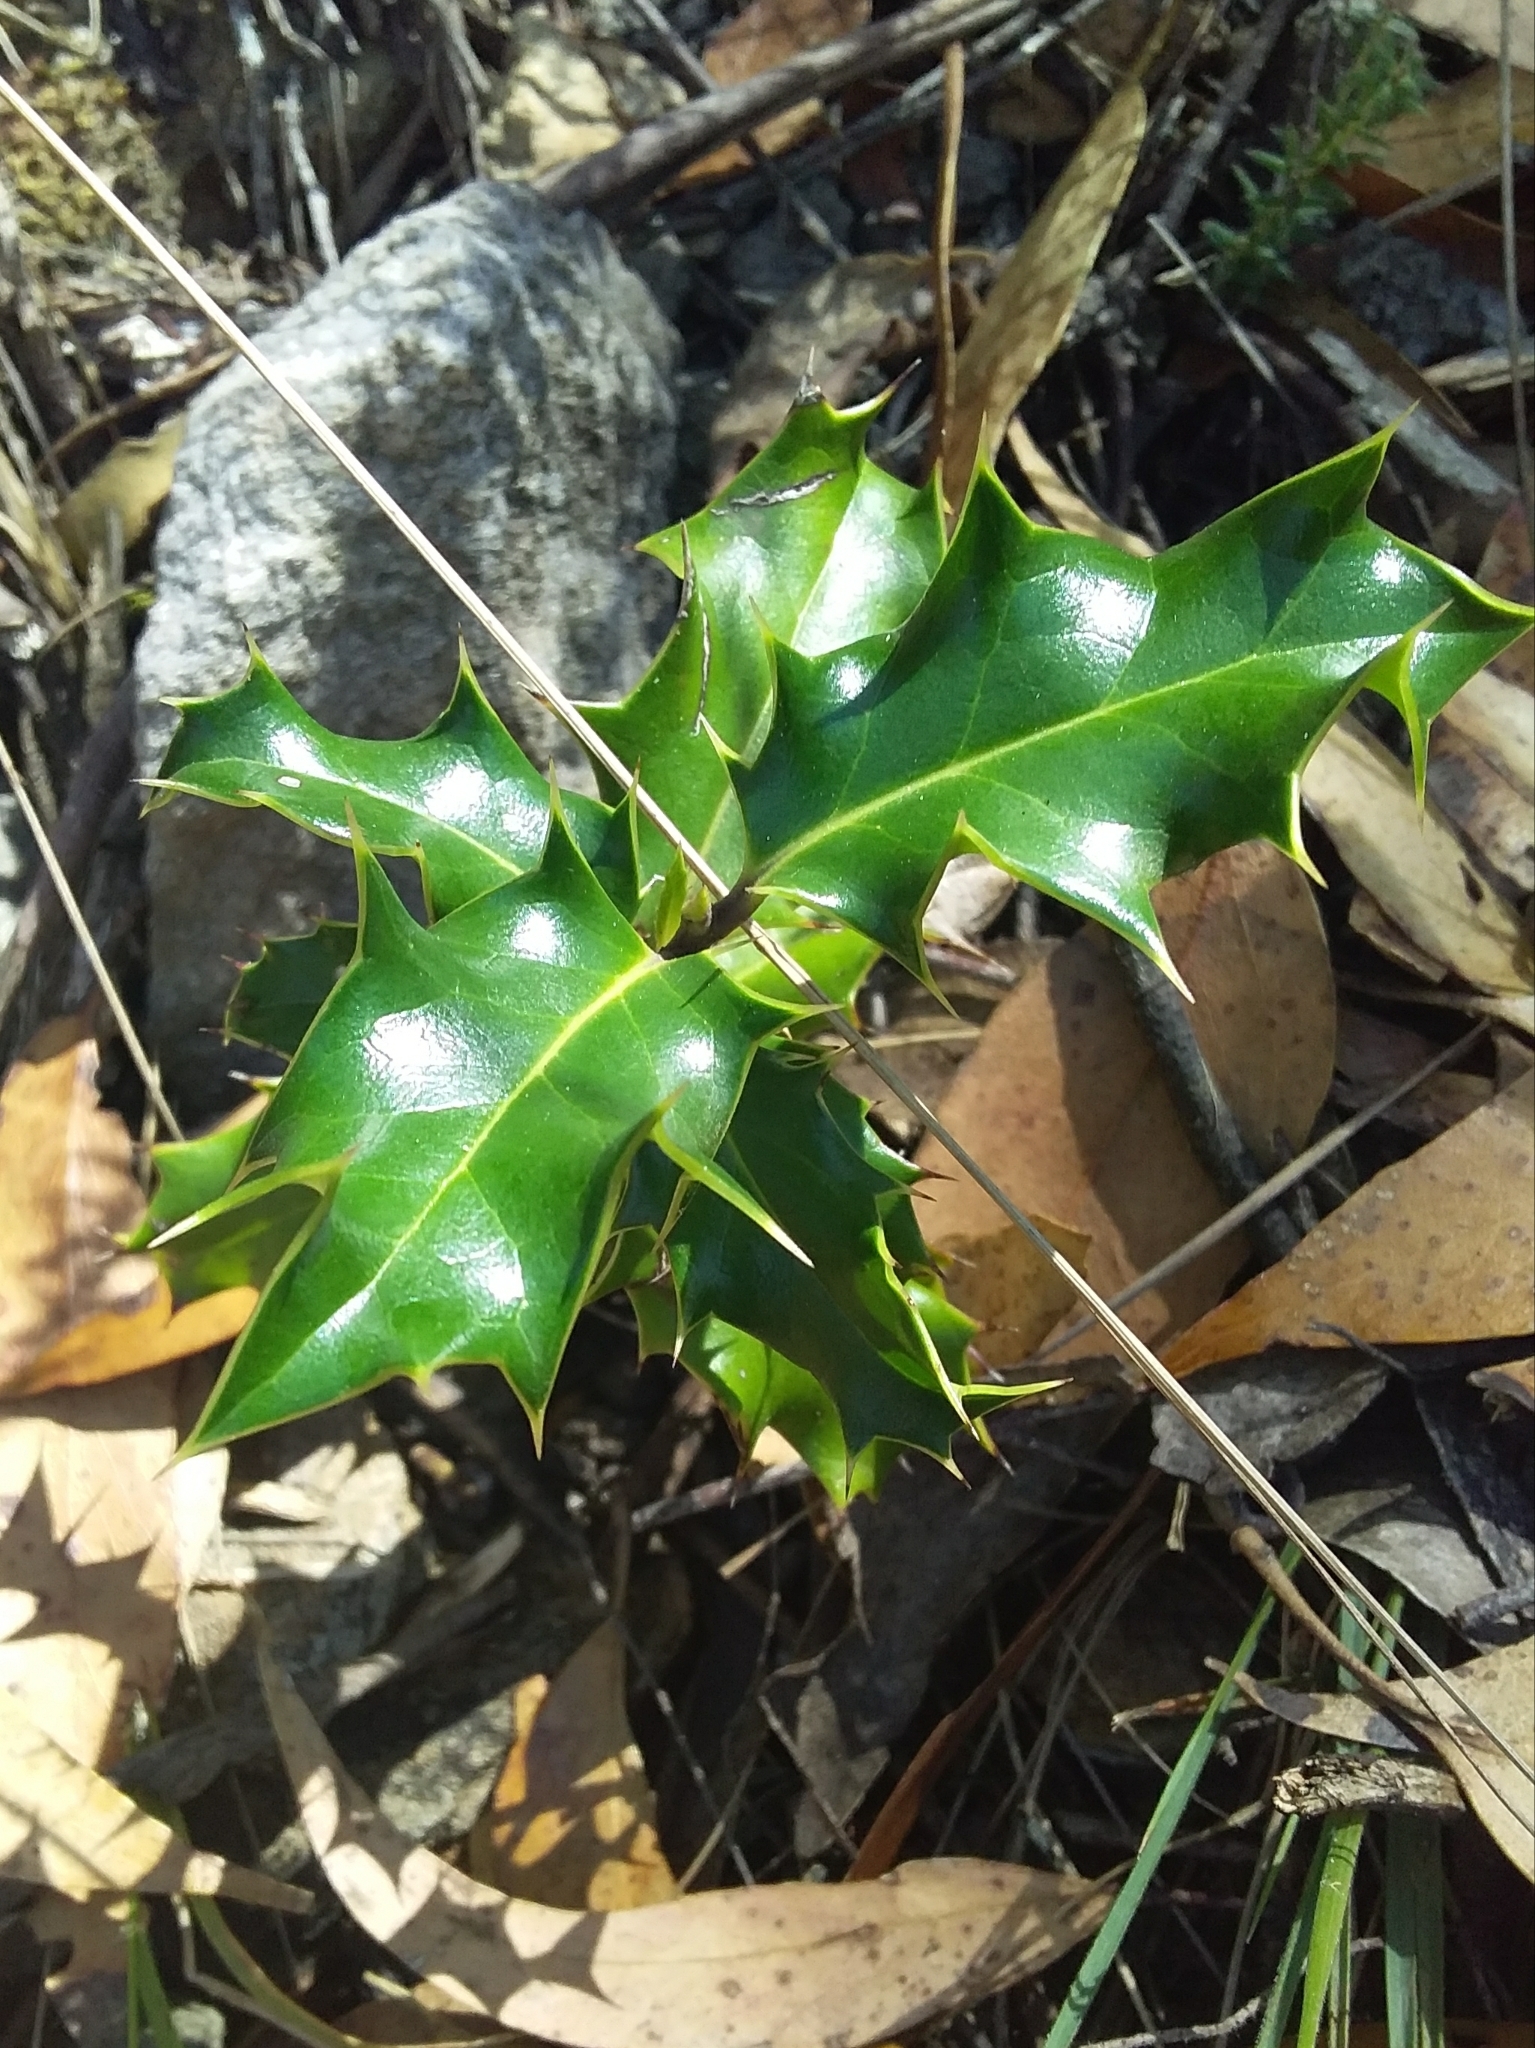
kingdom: Plantae
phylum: Tracheophyta
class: Magnoliopsida
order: Aquifoliales
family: Aquifoliaceae
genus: Ilex
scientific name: Ilex aquifolium
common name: English holly
